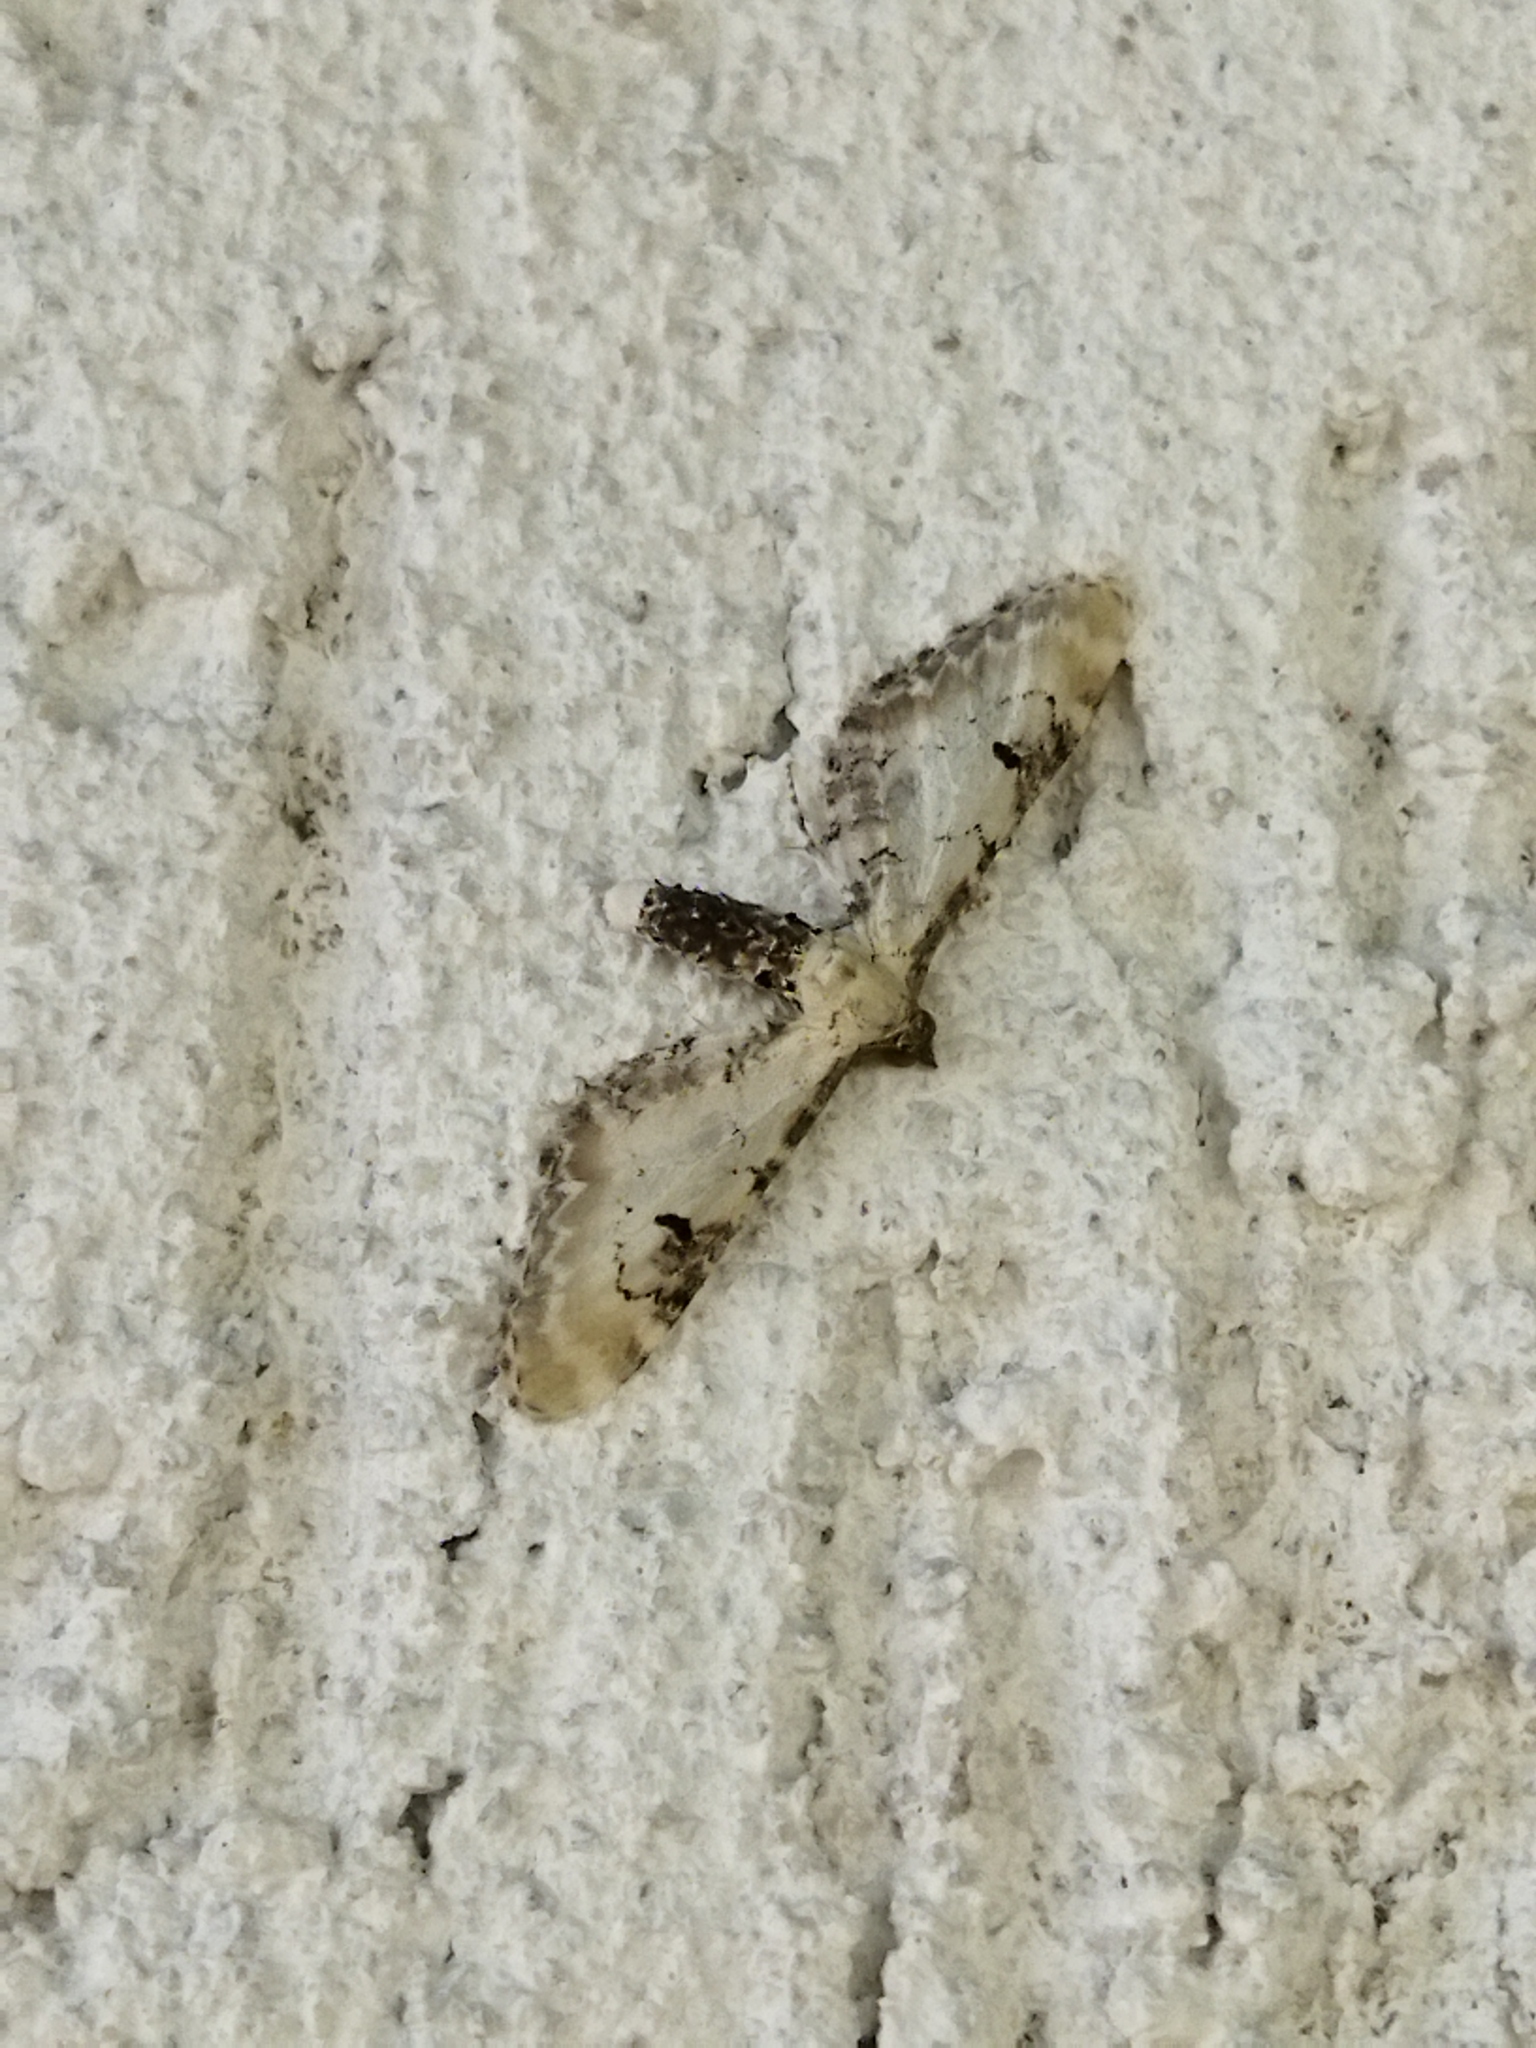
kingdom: Animalia
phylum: Arthropoda
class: Insecta
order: Lepidoptera
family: Geometridae
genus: Eupithecia
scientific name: Eupithecia centaureata
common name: Lime-speck pug
